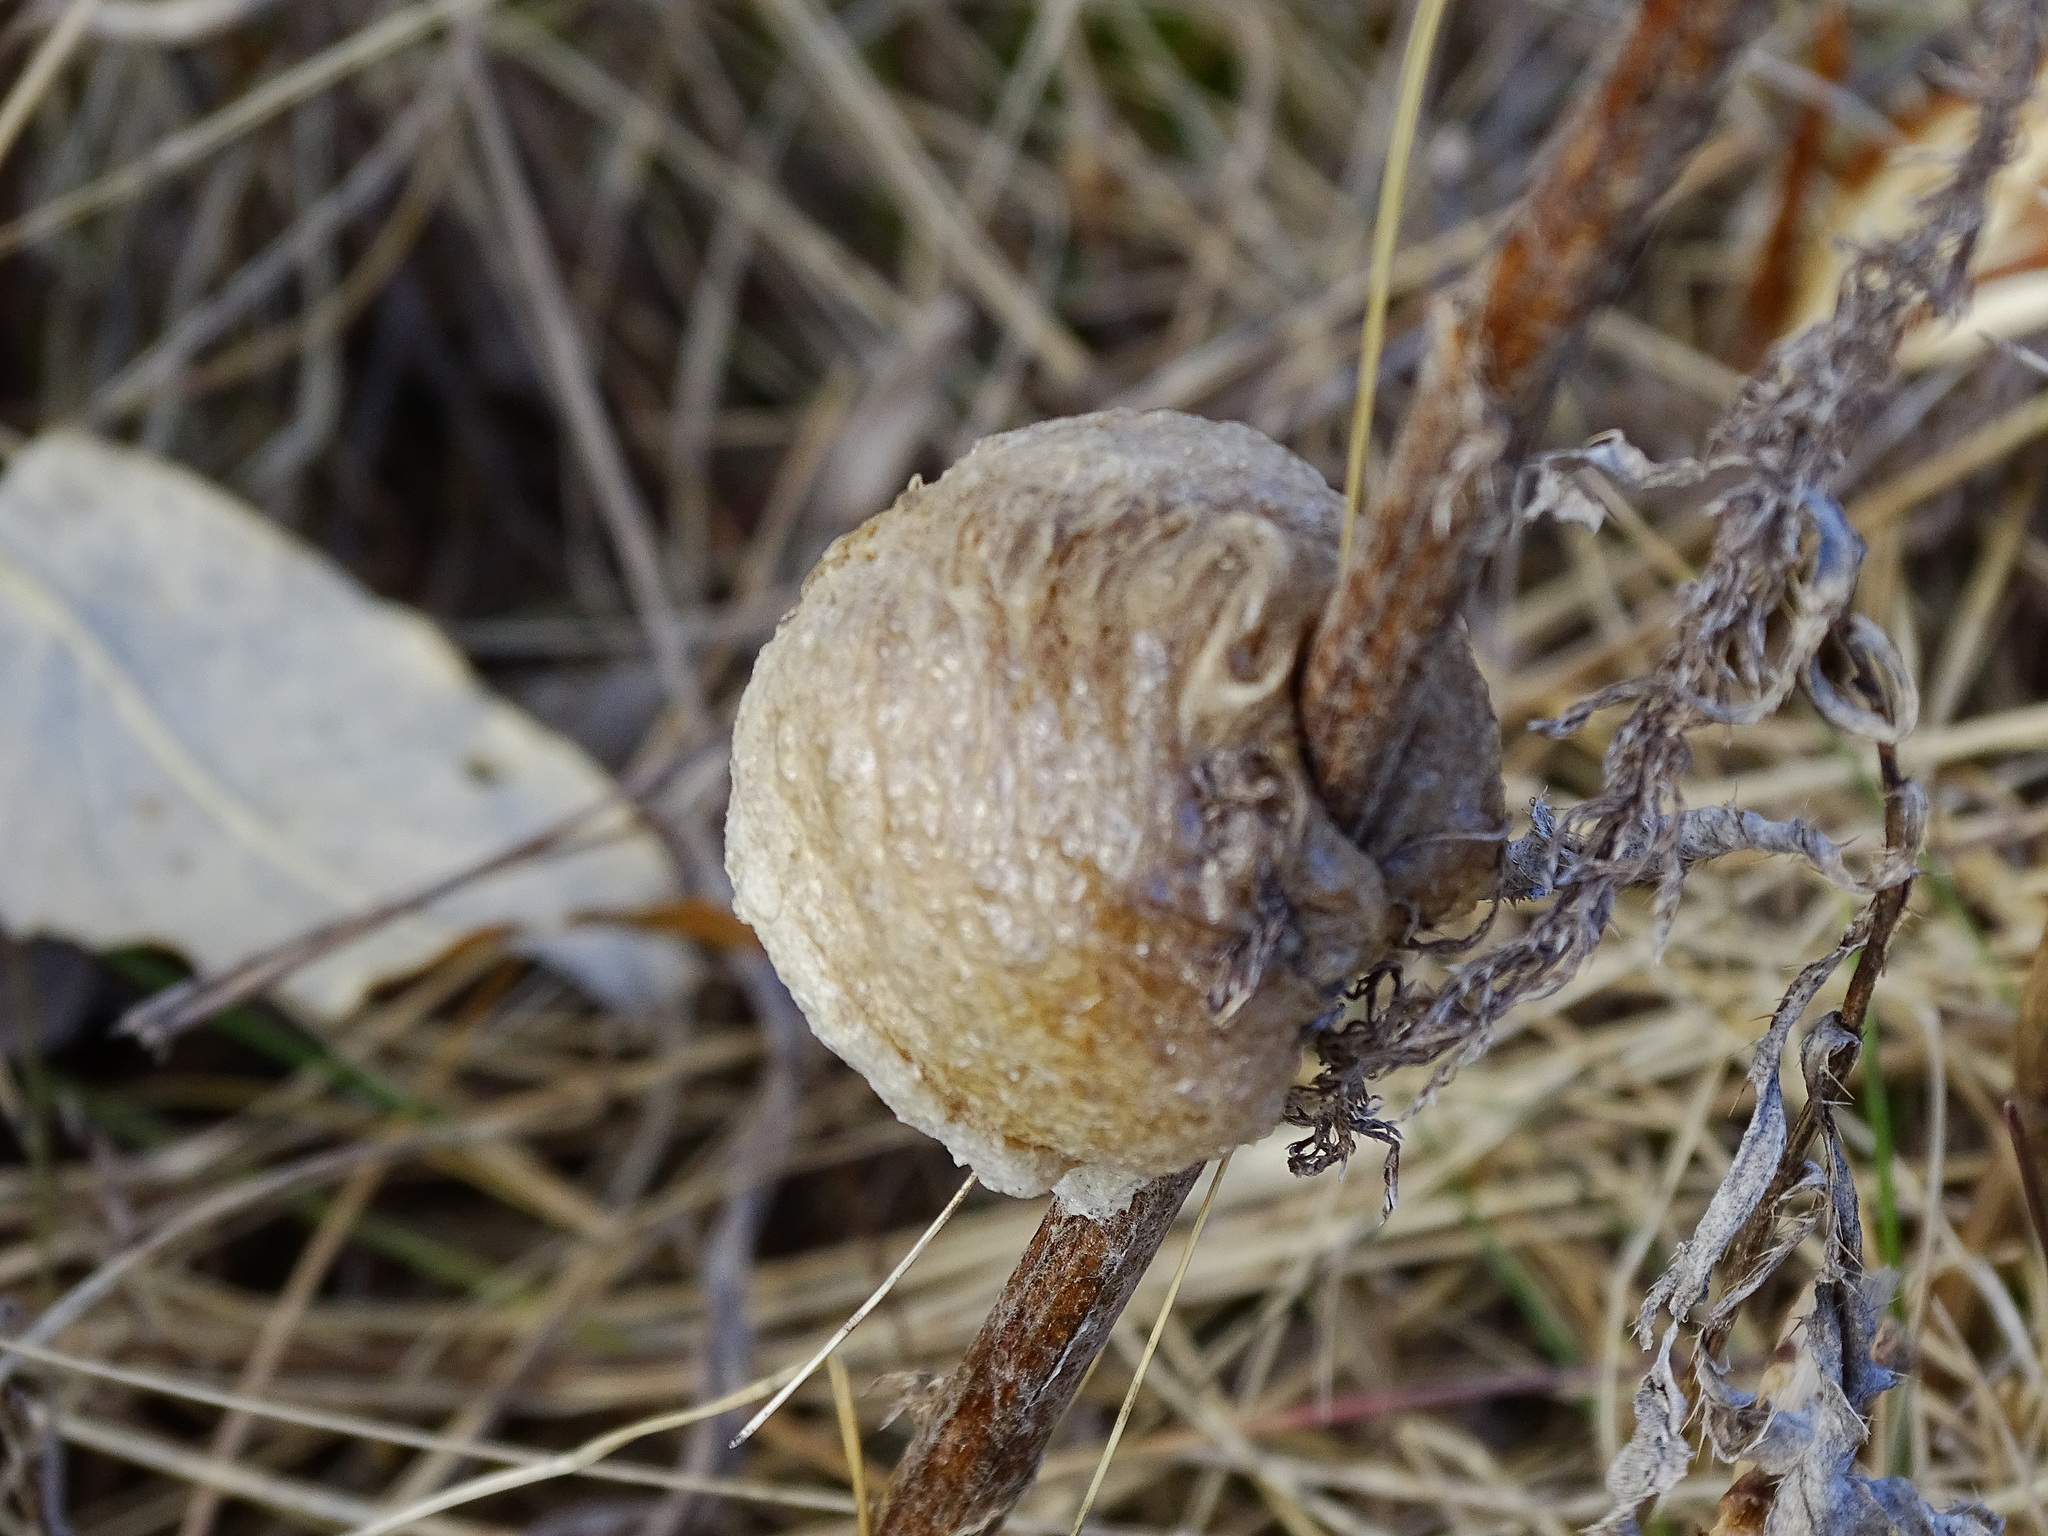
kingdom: Animalia
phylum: Arthropoda
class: Insecta
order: Mantodea
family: Mantidae
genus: Tenodera
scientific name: Tenodera sinensis
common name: Chinese mantis
